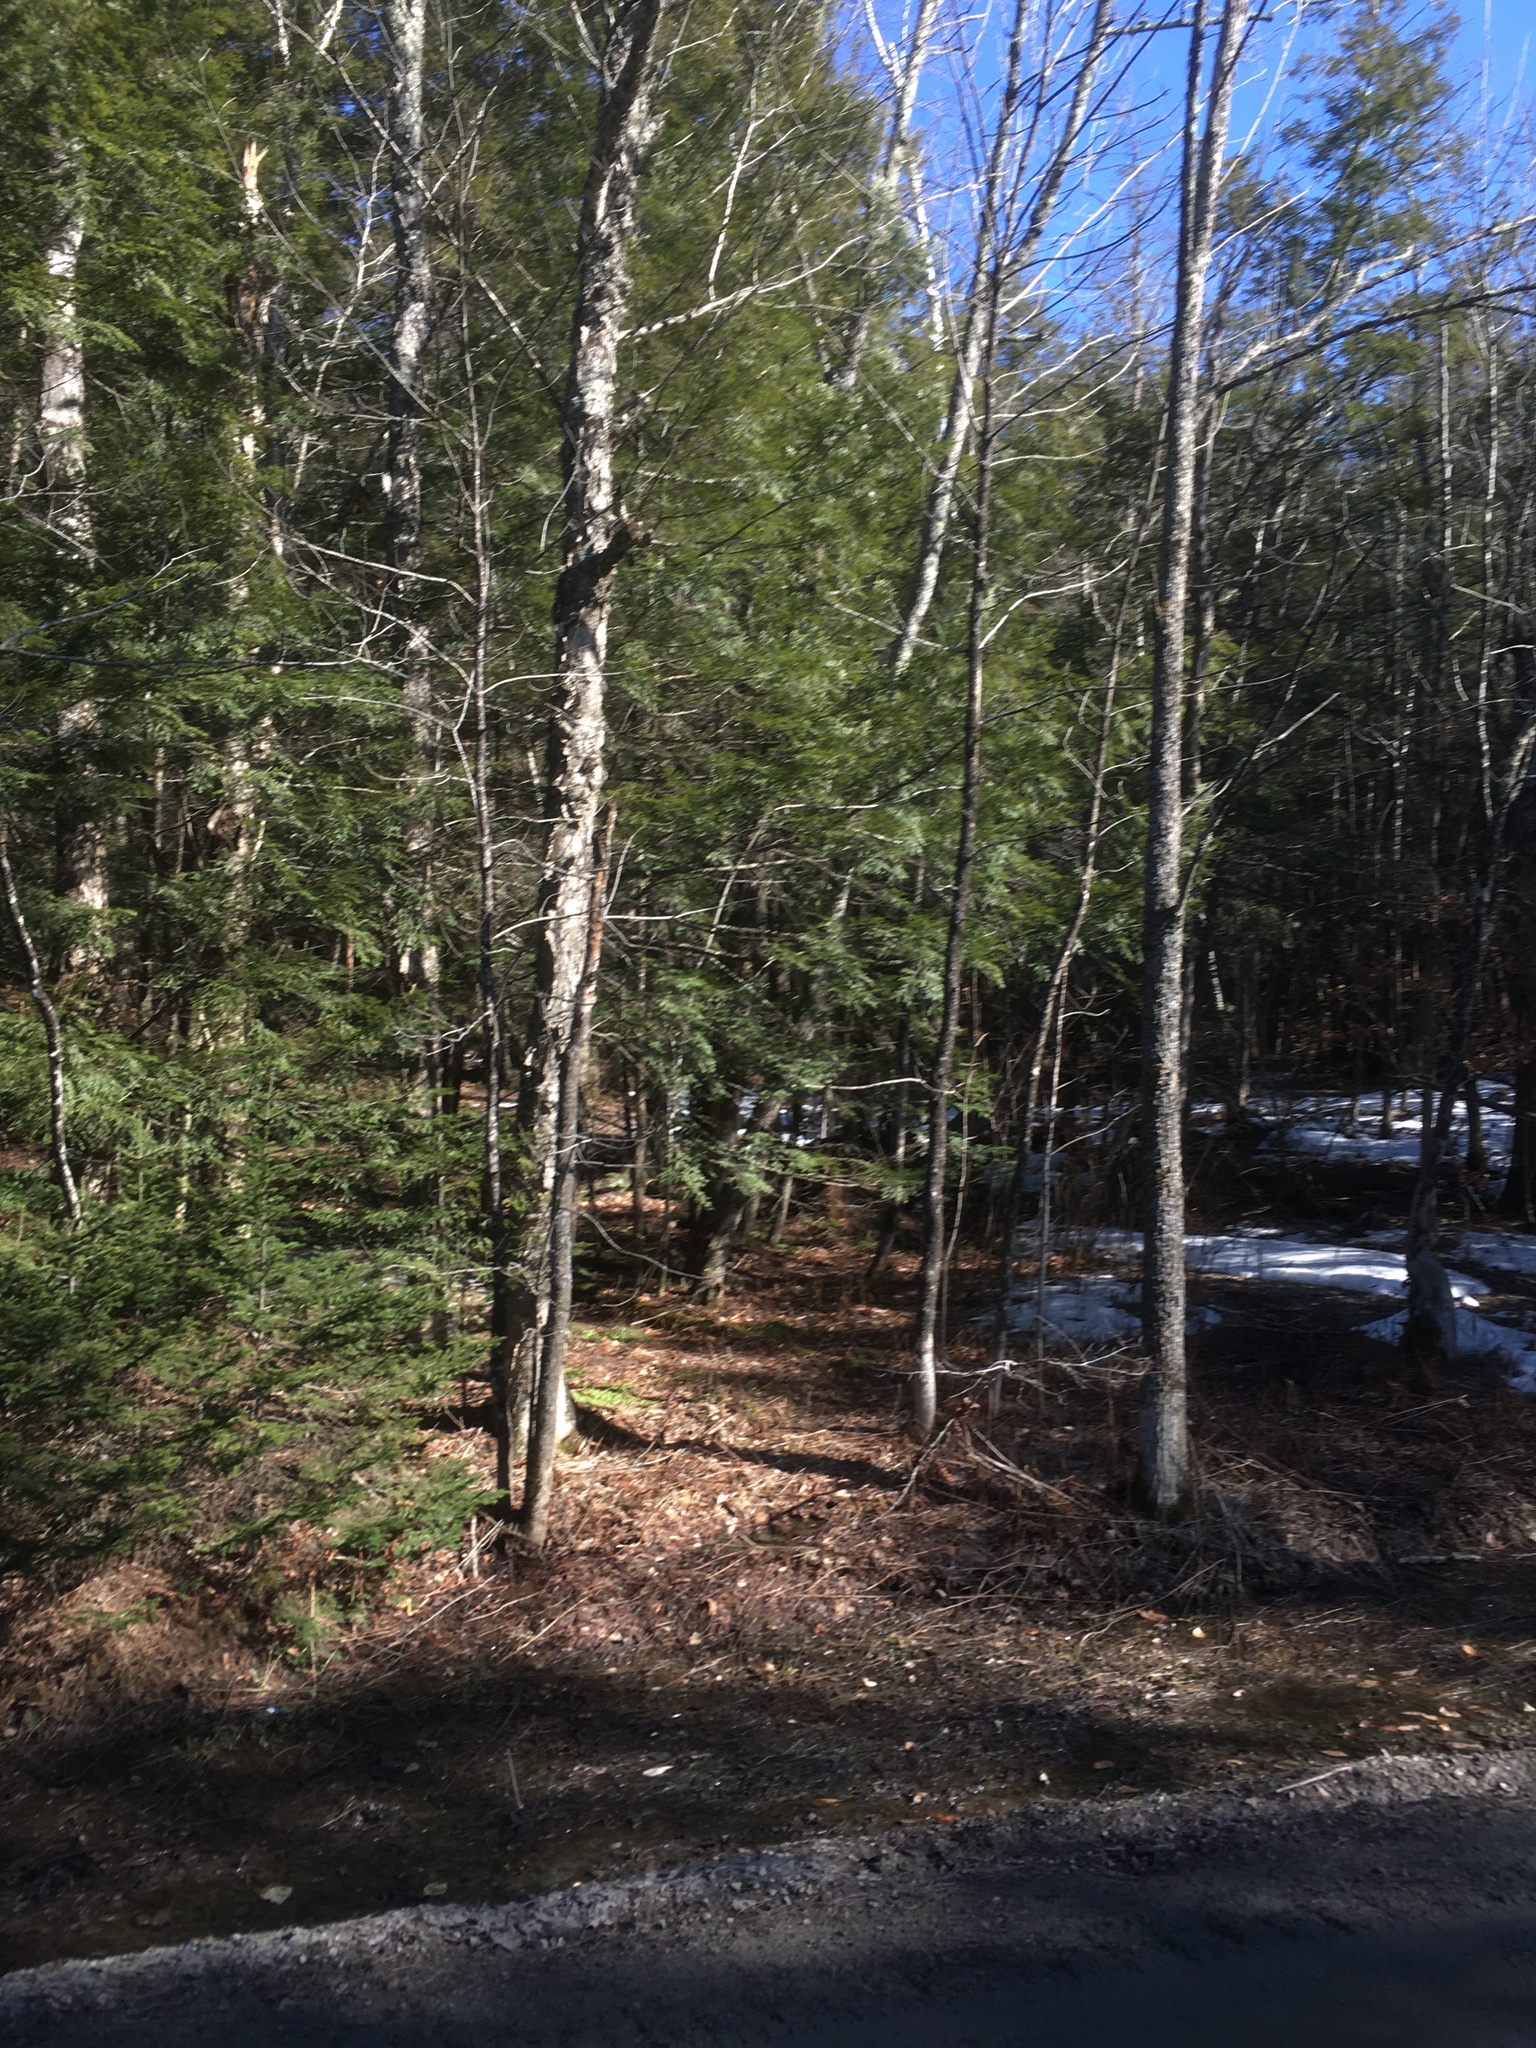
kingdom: Plantae
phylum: Tracheophyta
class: Magnoliopsida
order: Fagales
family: Betulaceae
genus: Betula
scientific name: Betula alleghaniensis
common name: Yellow birch
